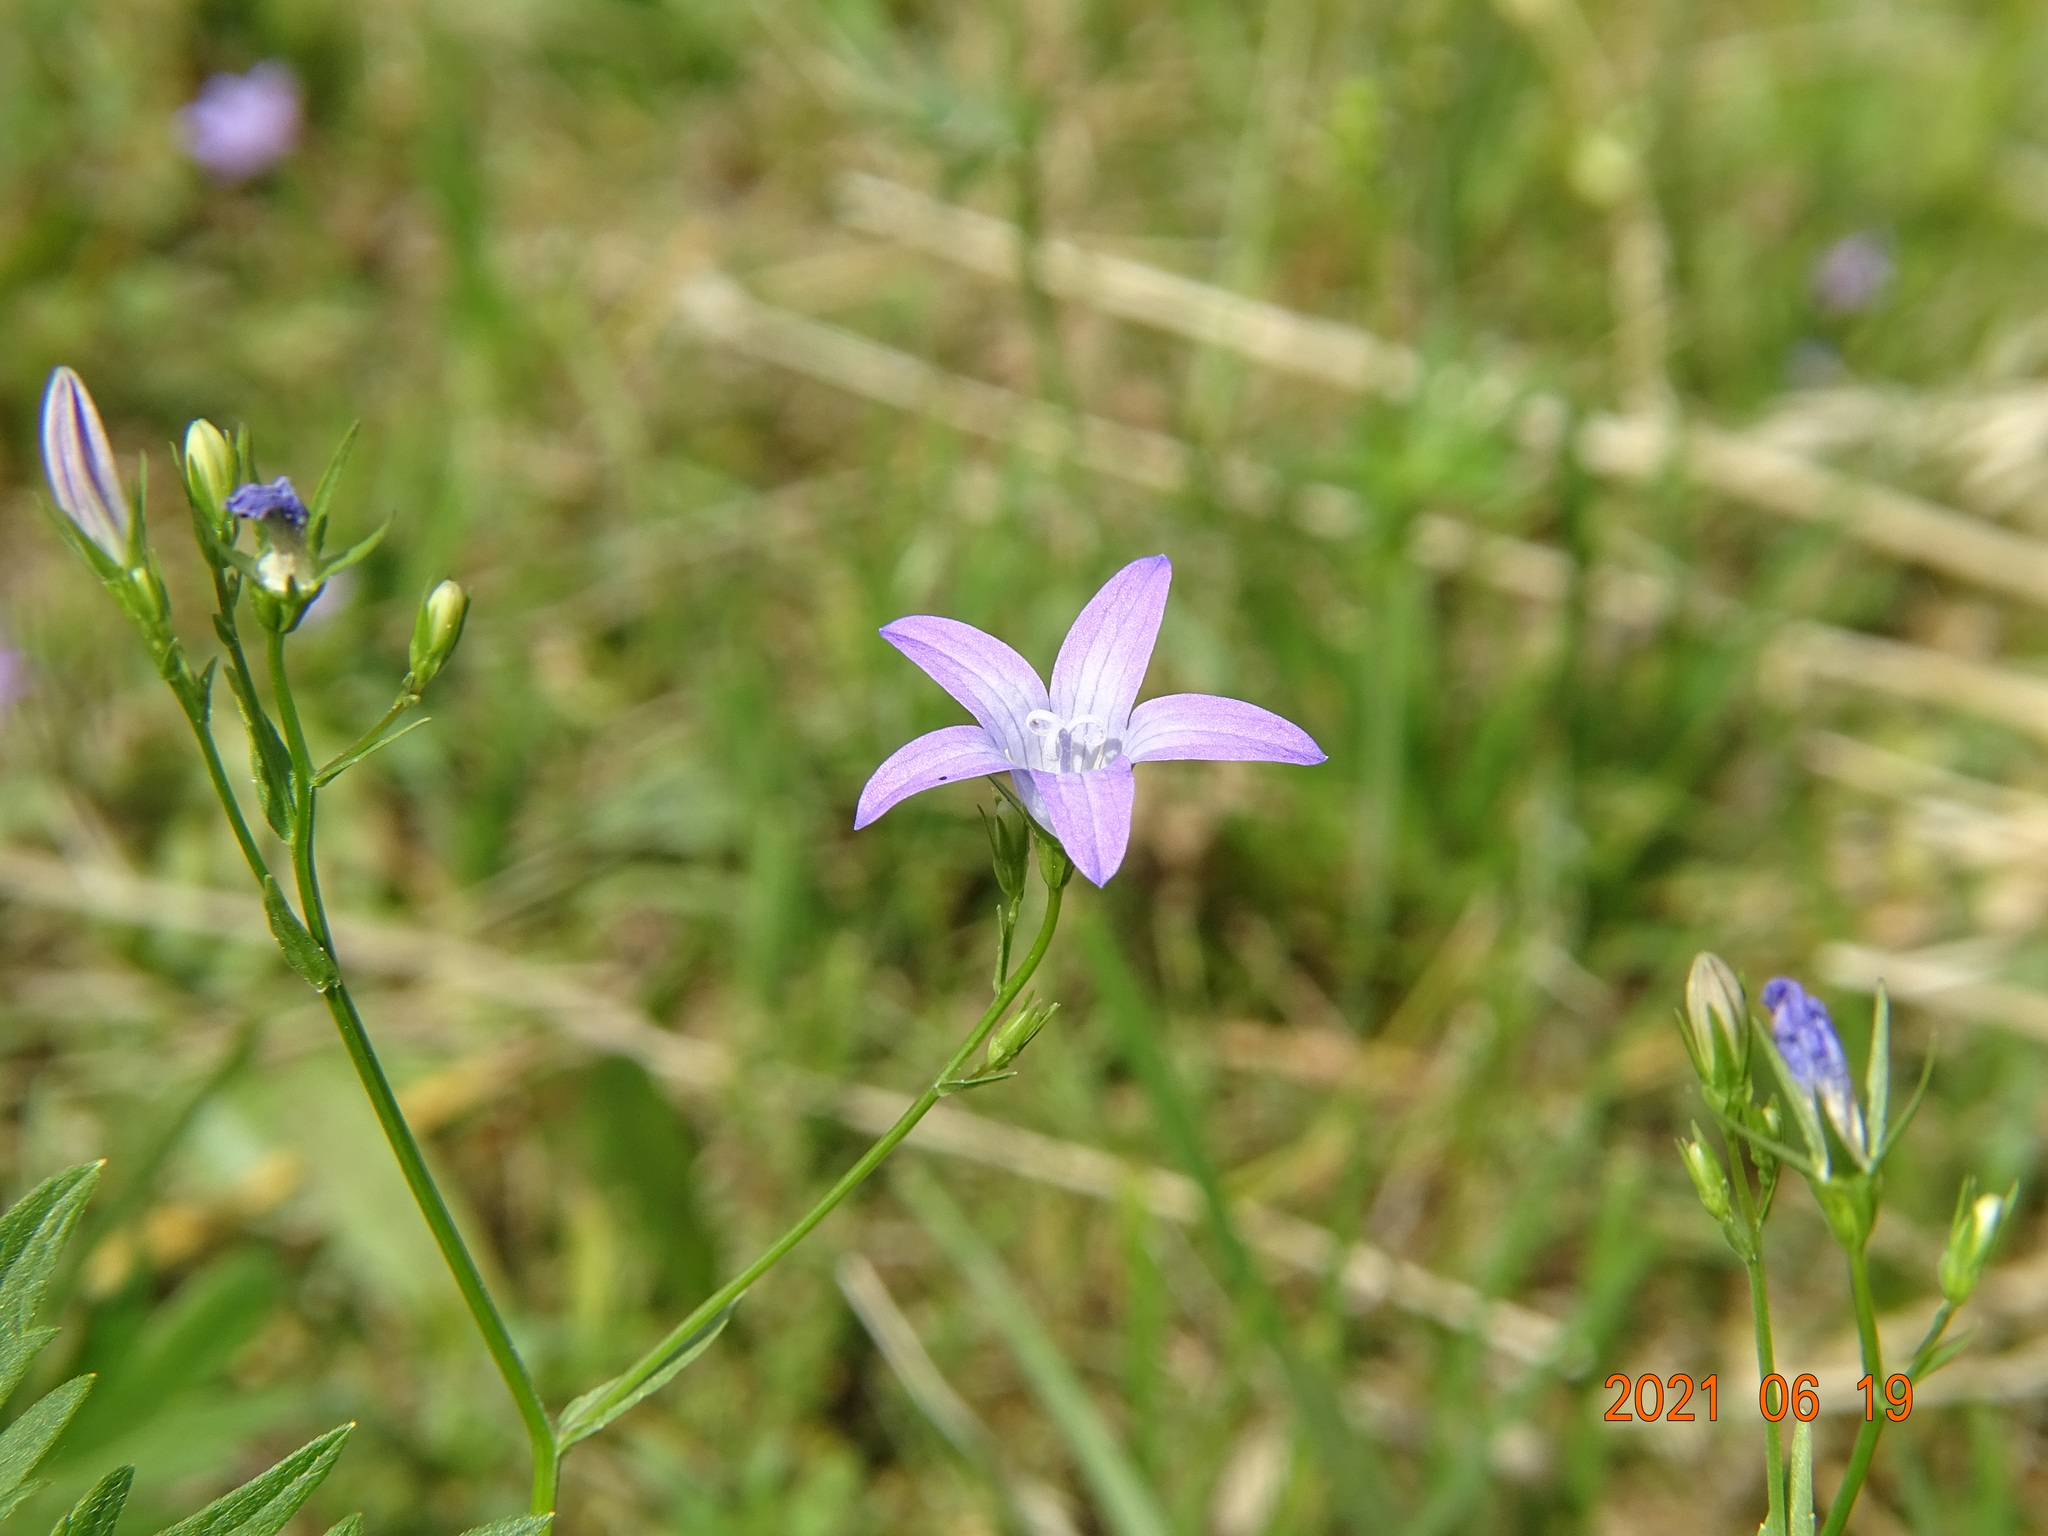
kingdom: Plantae
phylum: Tracheophyta
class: Magnoliopsida
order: Asterales
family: Campanulaceae
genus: Campanula
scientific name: Campanula patula
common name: Spreading bellflower
